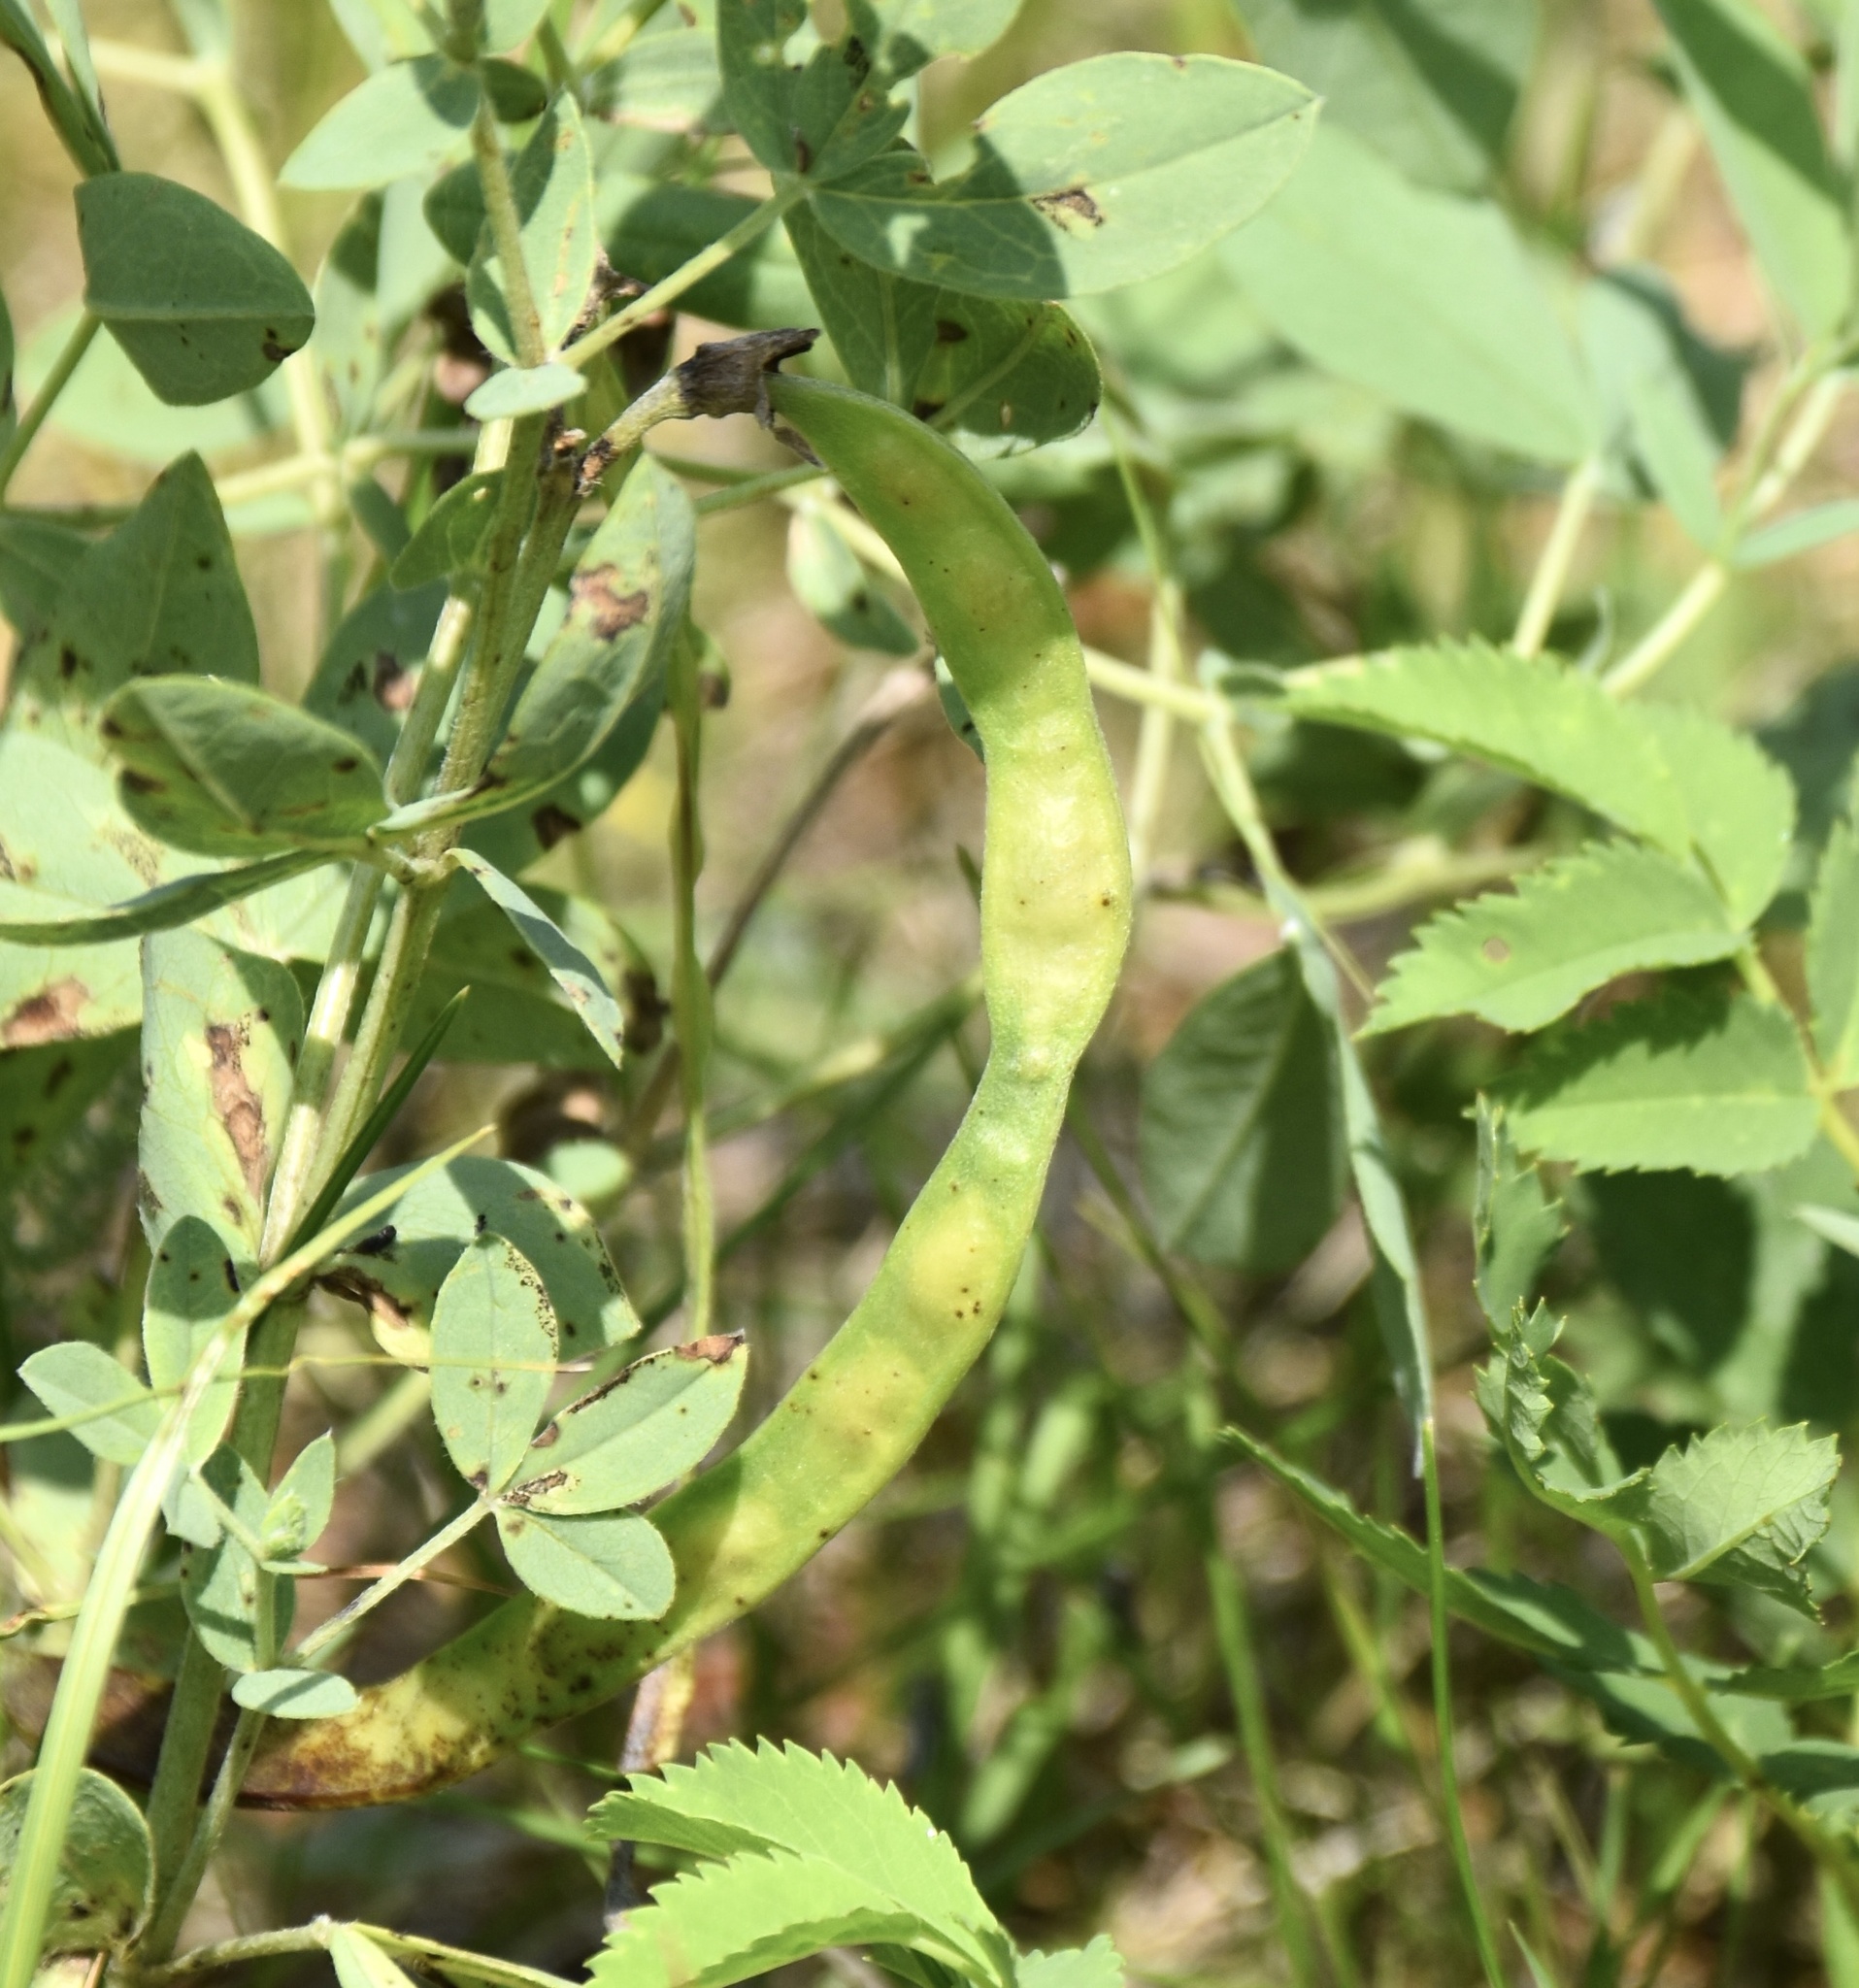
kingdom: Plantae
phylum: Tracheophyta
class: Magnoliopsida
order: Fabales
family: Fabaceae
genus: Thermopsis
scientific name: Thermopsis rhombifolia
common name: Circle-pod-pea
